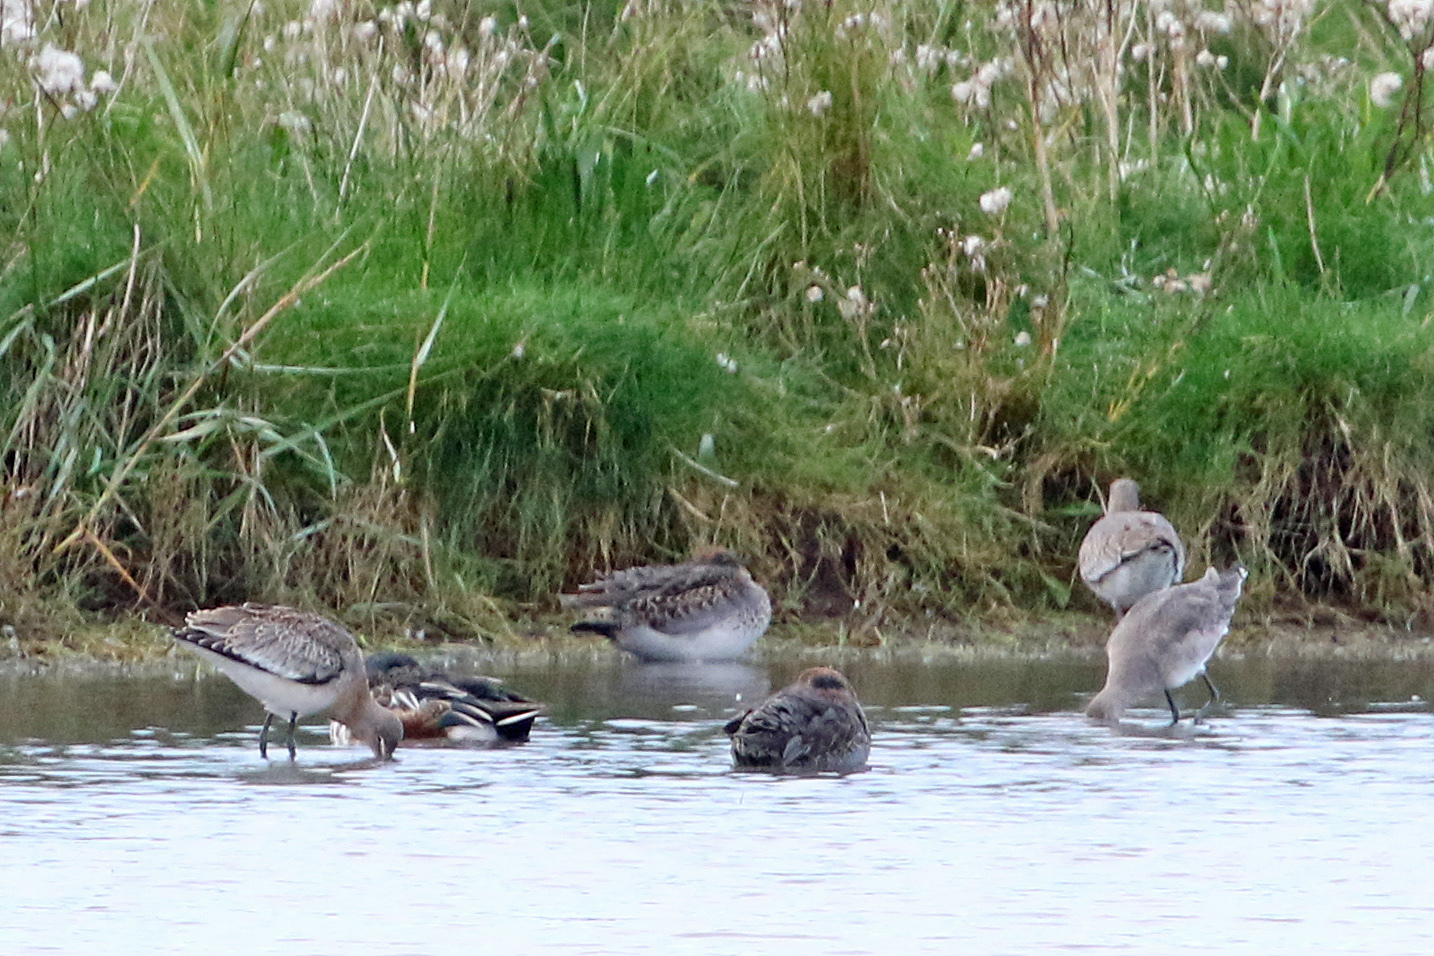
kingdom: Animalia
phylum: Chordata
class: Aves
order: Charadriiformes
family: Scolopacidae
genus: Limosa
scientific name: Limosa limosa
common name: Black-tailed godwit
